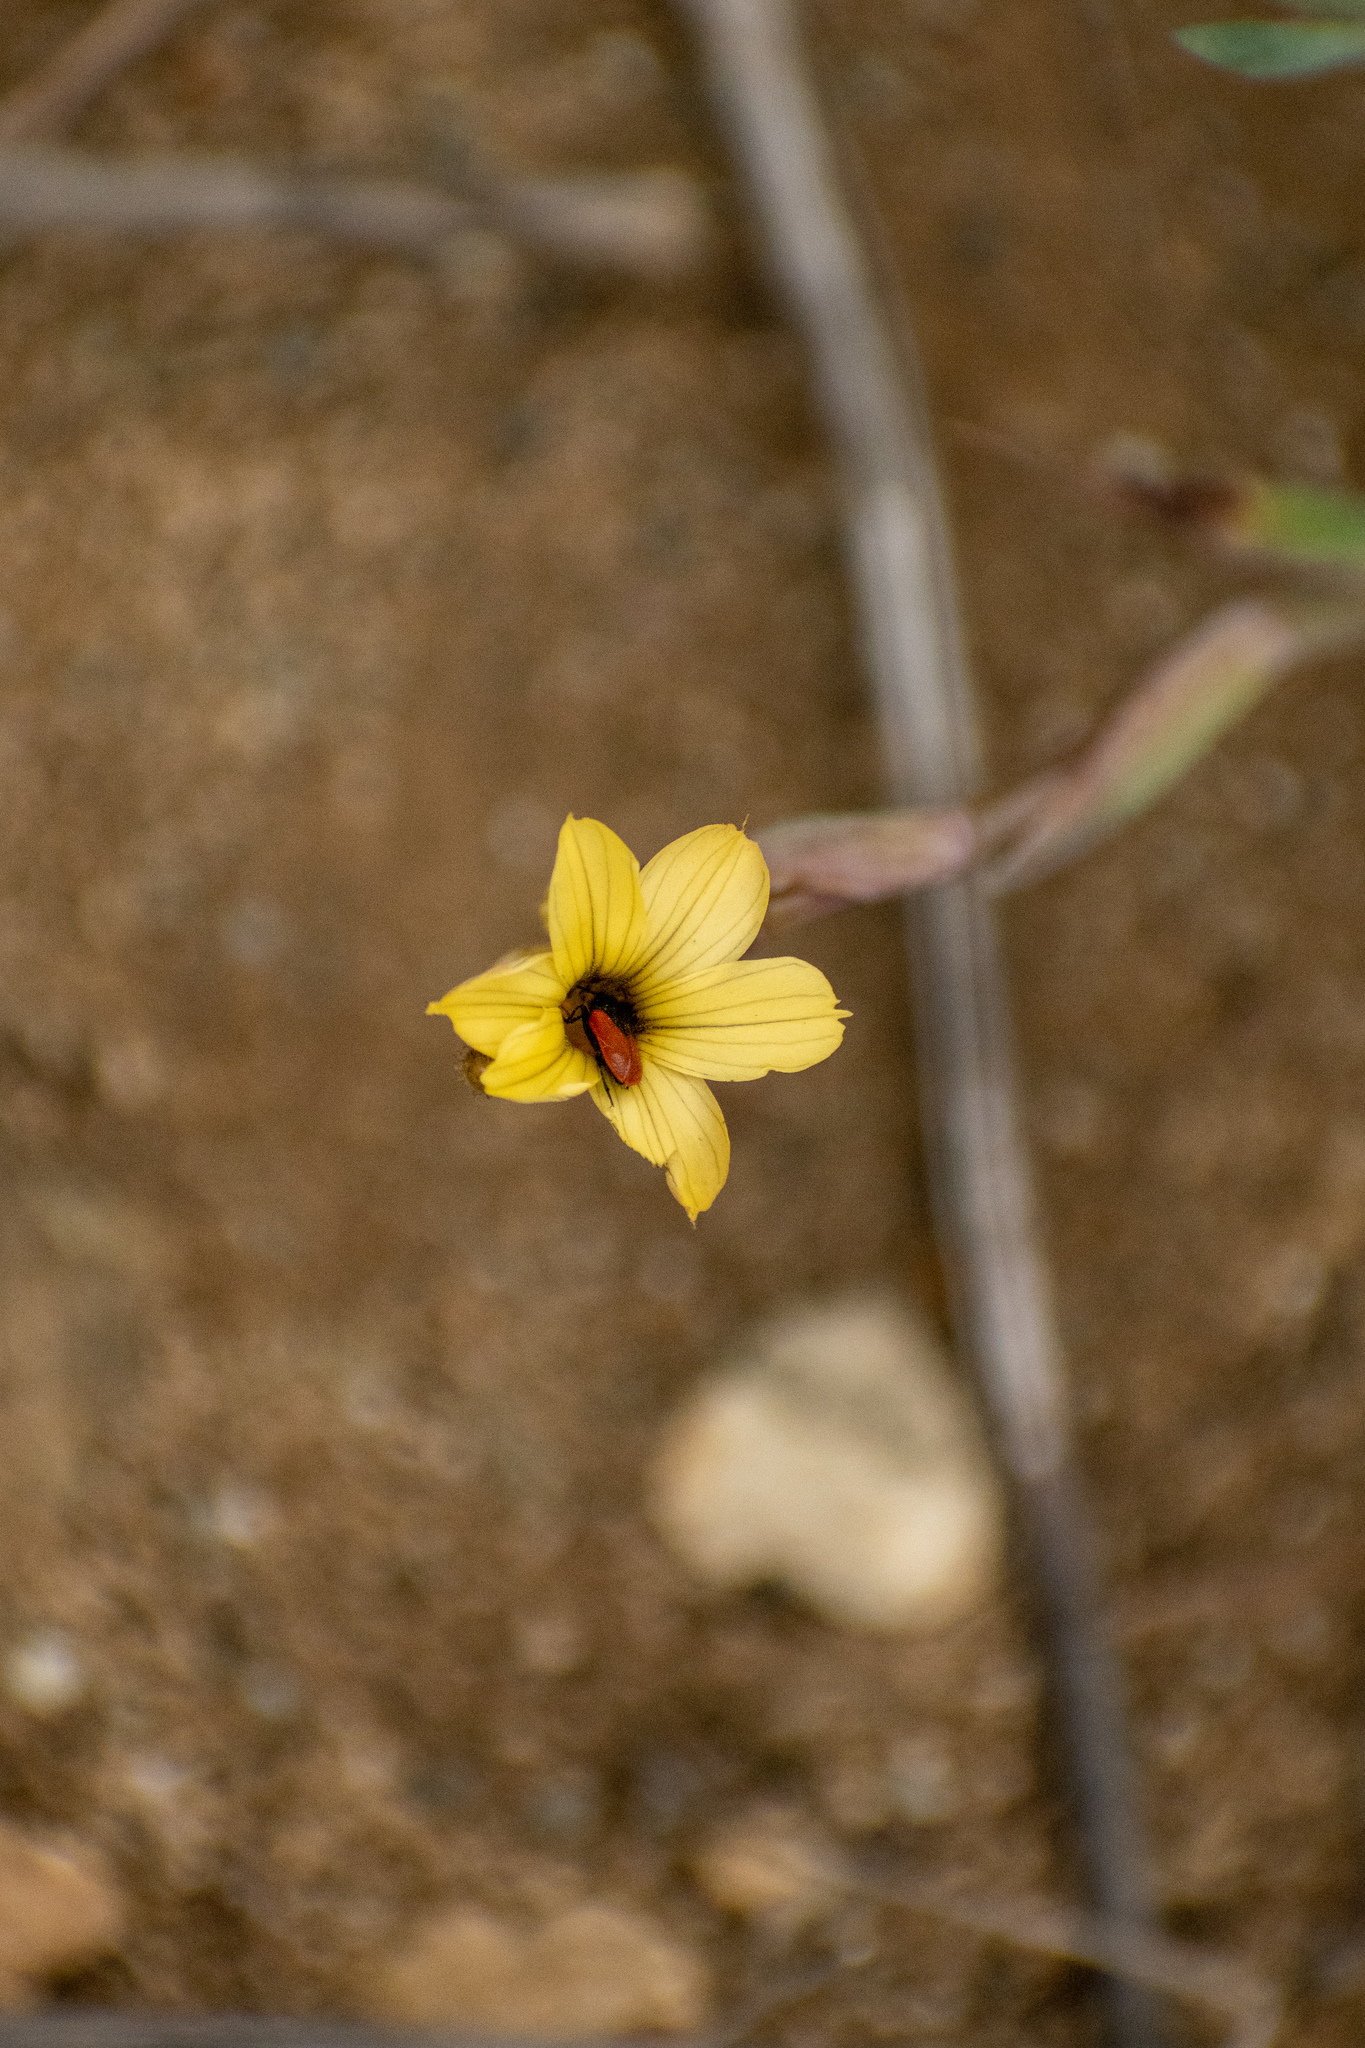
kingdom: Plantae
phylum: Tracheophyta
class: Liliopsida
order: Asparagales
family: Iridaceae
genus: Sisyrinchium
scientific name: Sisyrinchium arenarium
